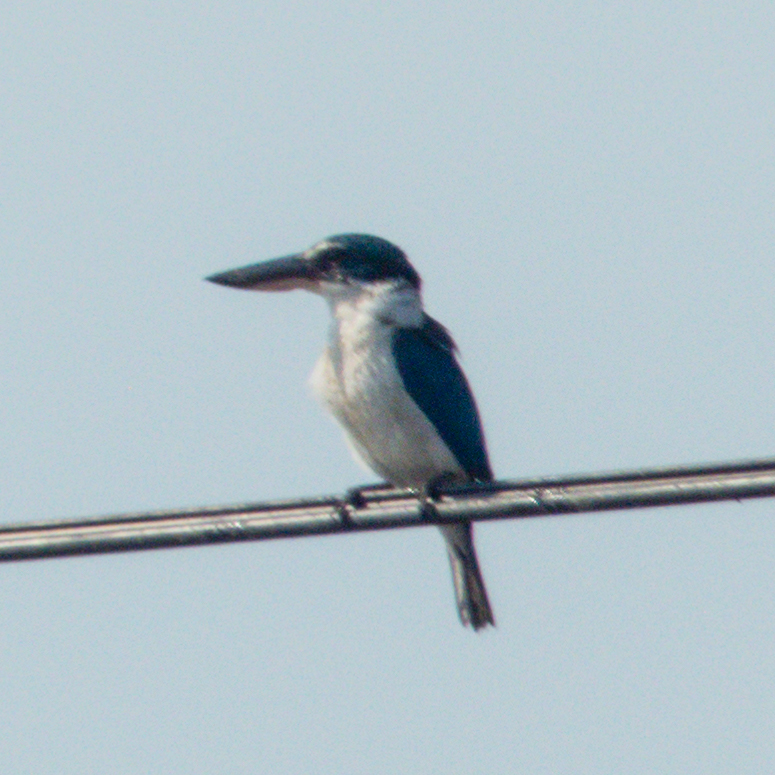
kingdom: Animalia
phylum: Chordata
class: Aves
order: Coraciiformes
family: Alcedinidae
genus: Todiramphus
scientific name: Todiramphus chloris
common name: Collared kingfisher
